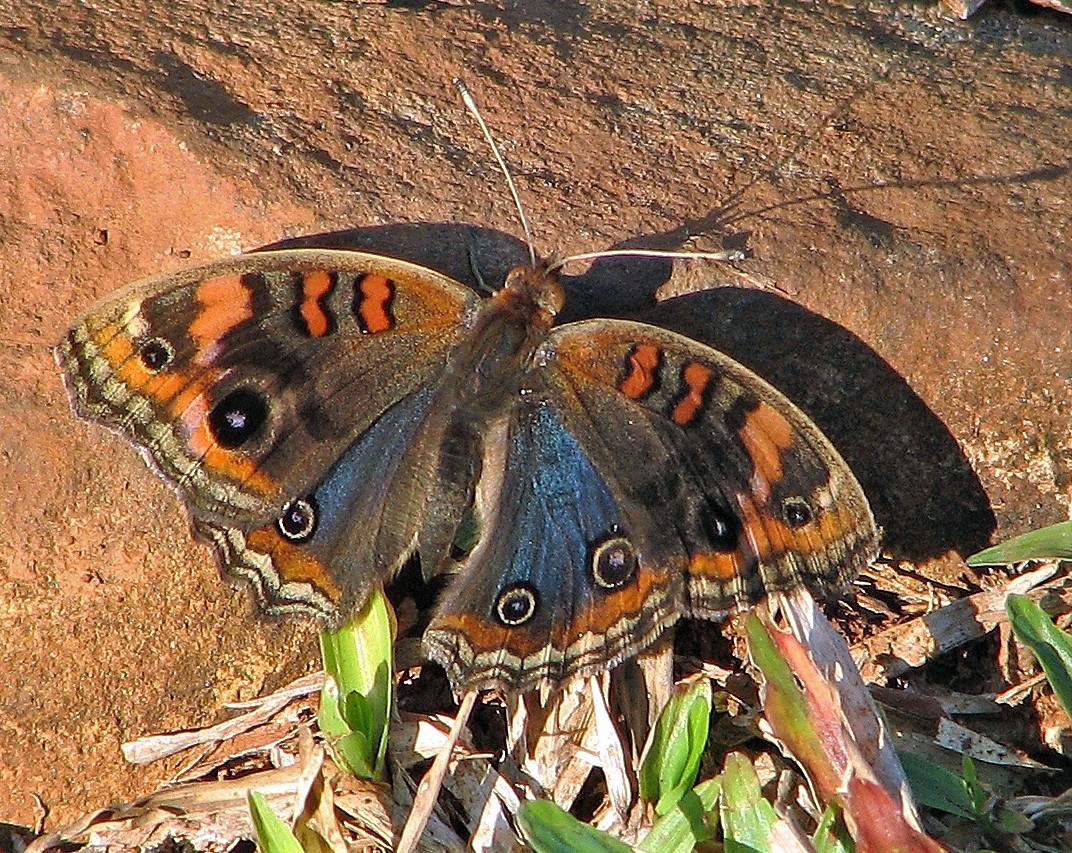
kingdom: Animalia
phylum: Arthropoda
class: Insecta
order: Lepidoptera
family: Nymphalidae
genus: Junonia
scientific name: Junonia lavinia
